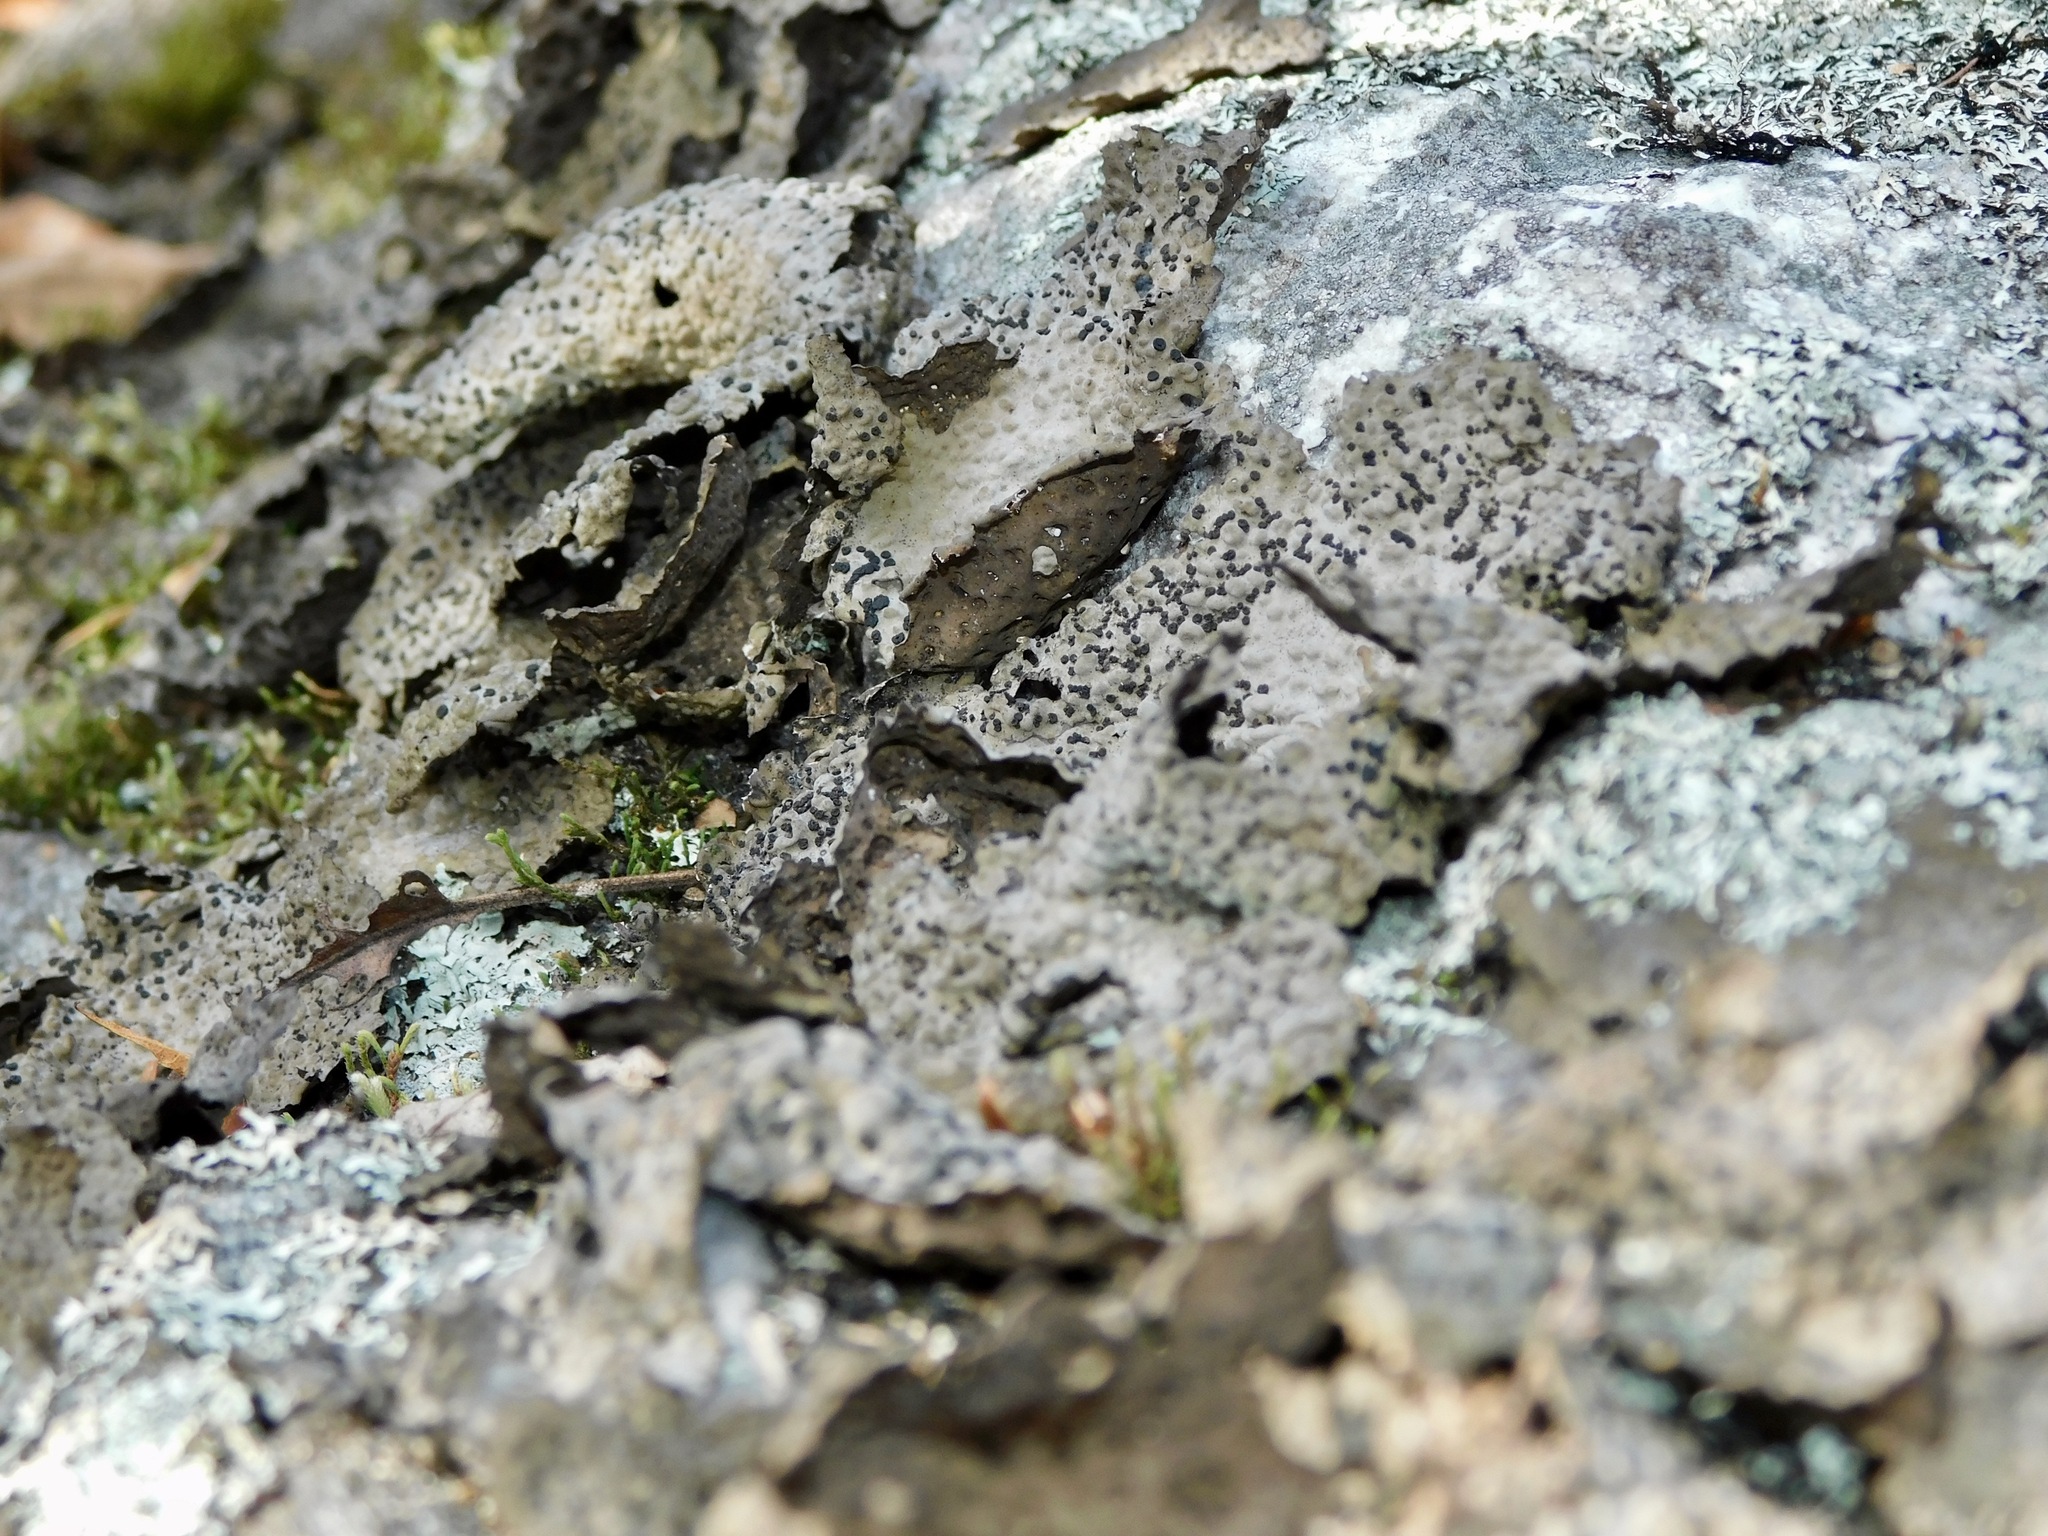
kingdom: Fungi
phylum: Ascomycota
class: Lecanoromycetes
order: Umbilicariales
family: Umbilicariaceae
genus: Lasallia
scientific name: Lasallia papulosa
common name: Common toadskin lichen
